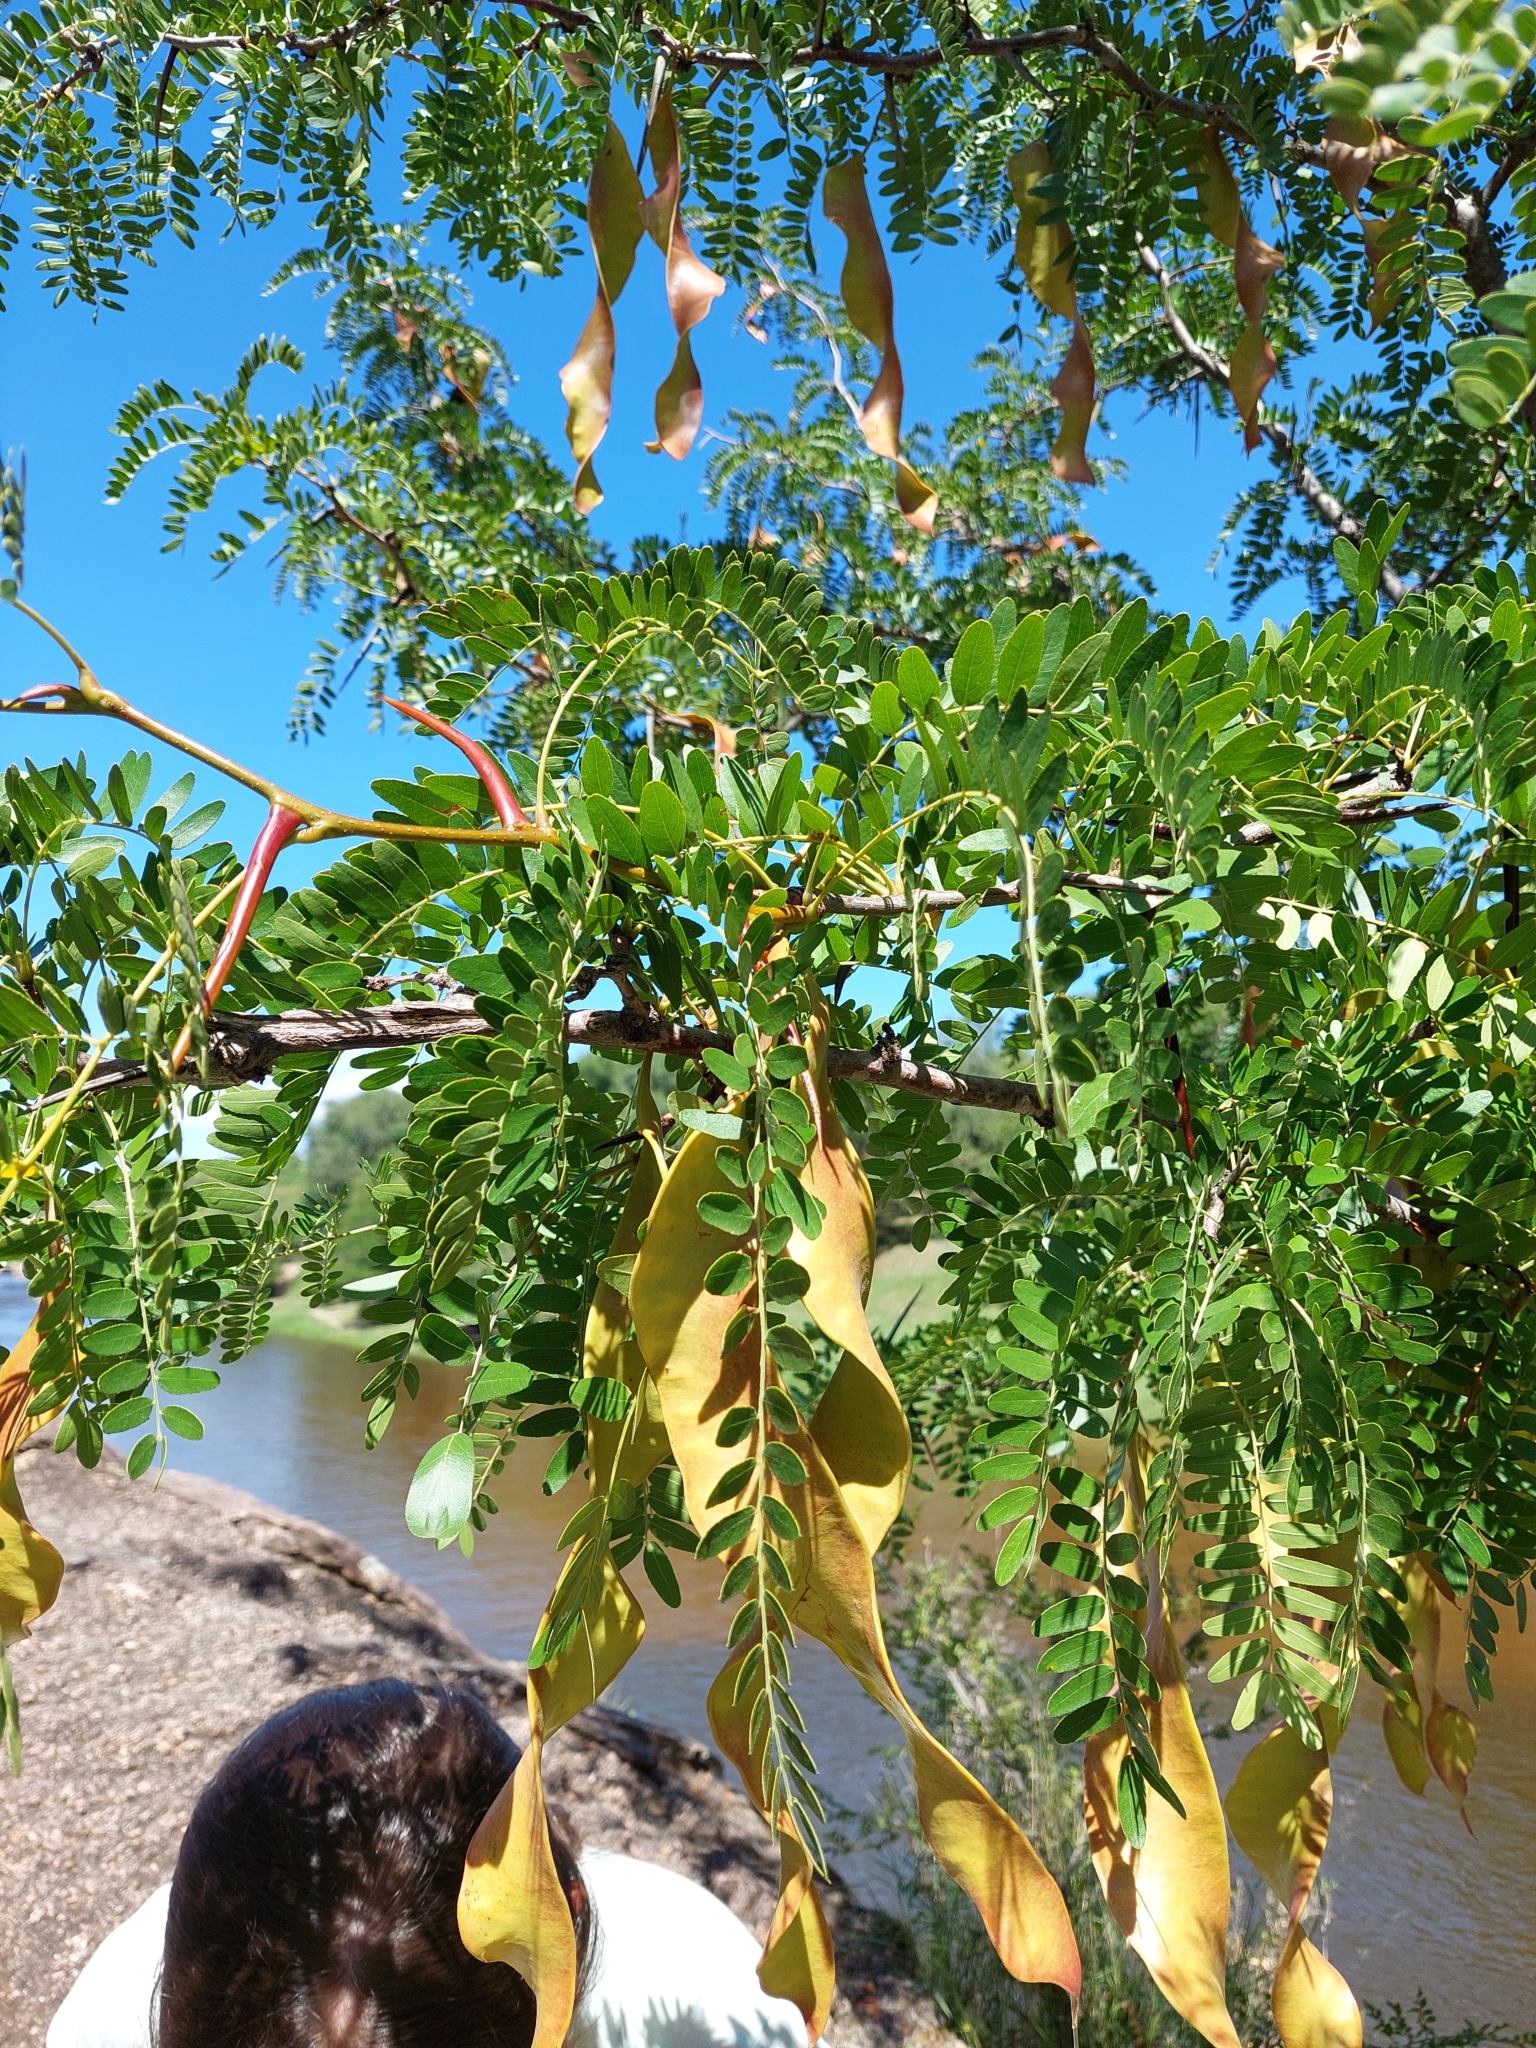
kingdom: Plantae
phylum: Tracheophyta
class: Magnoliopsida
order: Fabales
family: Fabaceae
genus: Gleditsia
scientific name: Gleditsia triacanthos
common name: Common honeylocust
